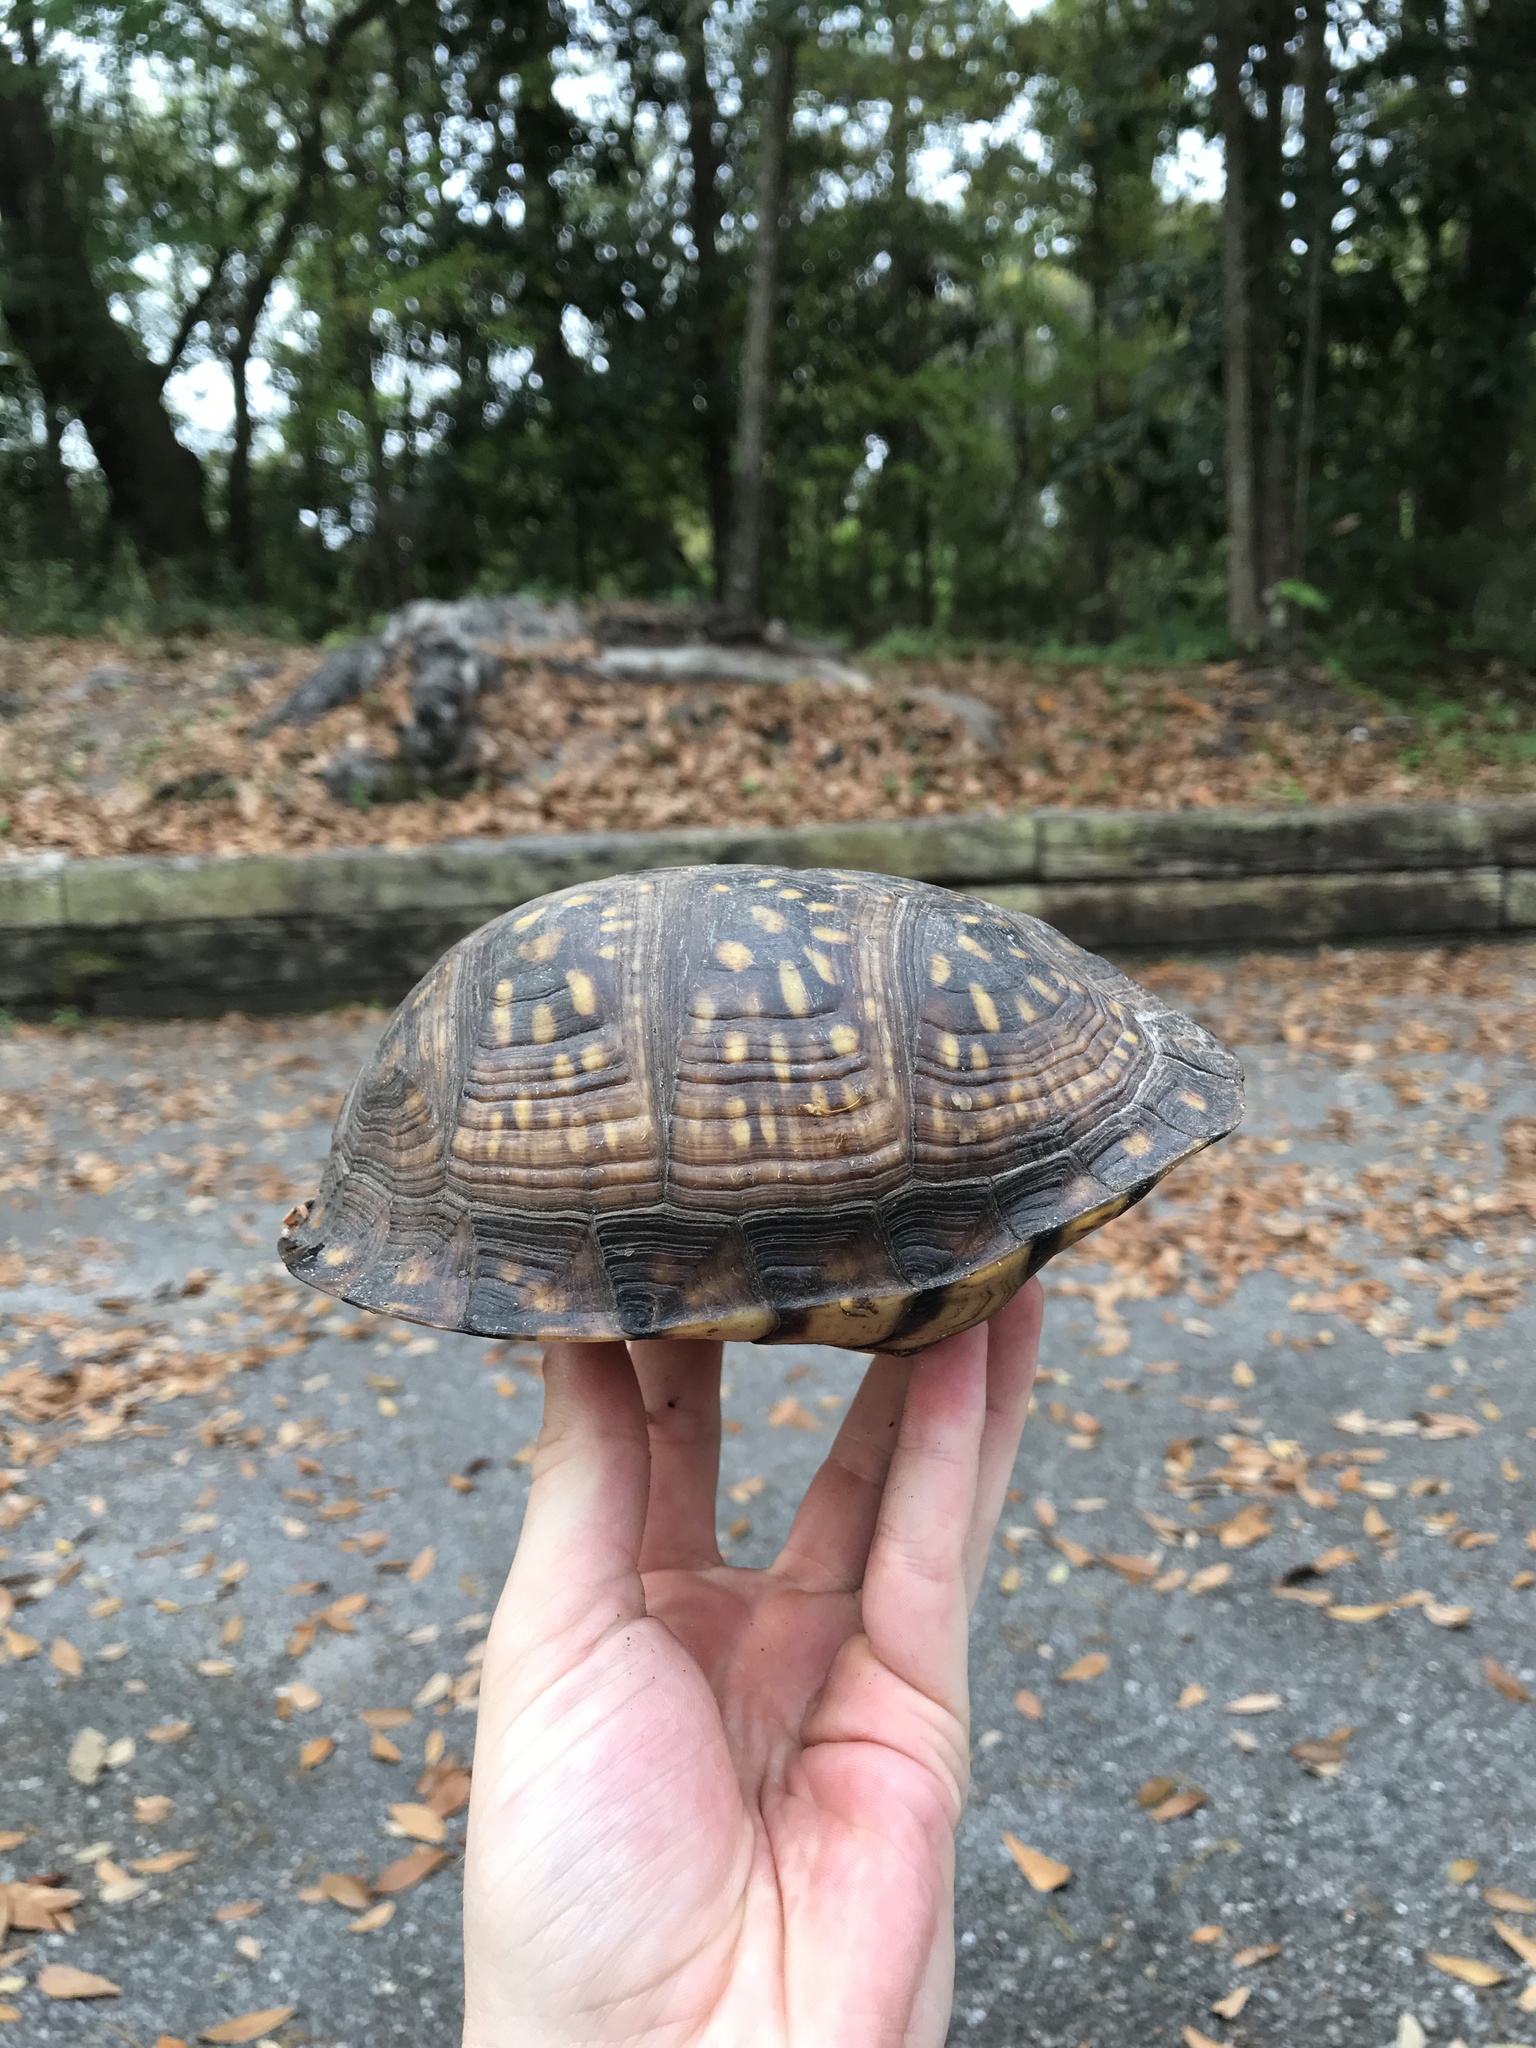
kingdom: Animalia
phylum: Chordata
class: Testudines
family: Emydidae
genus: Terrapene
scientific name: Terrapene carolina
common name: Common box turtle
